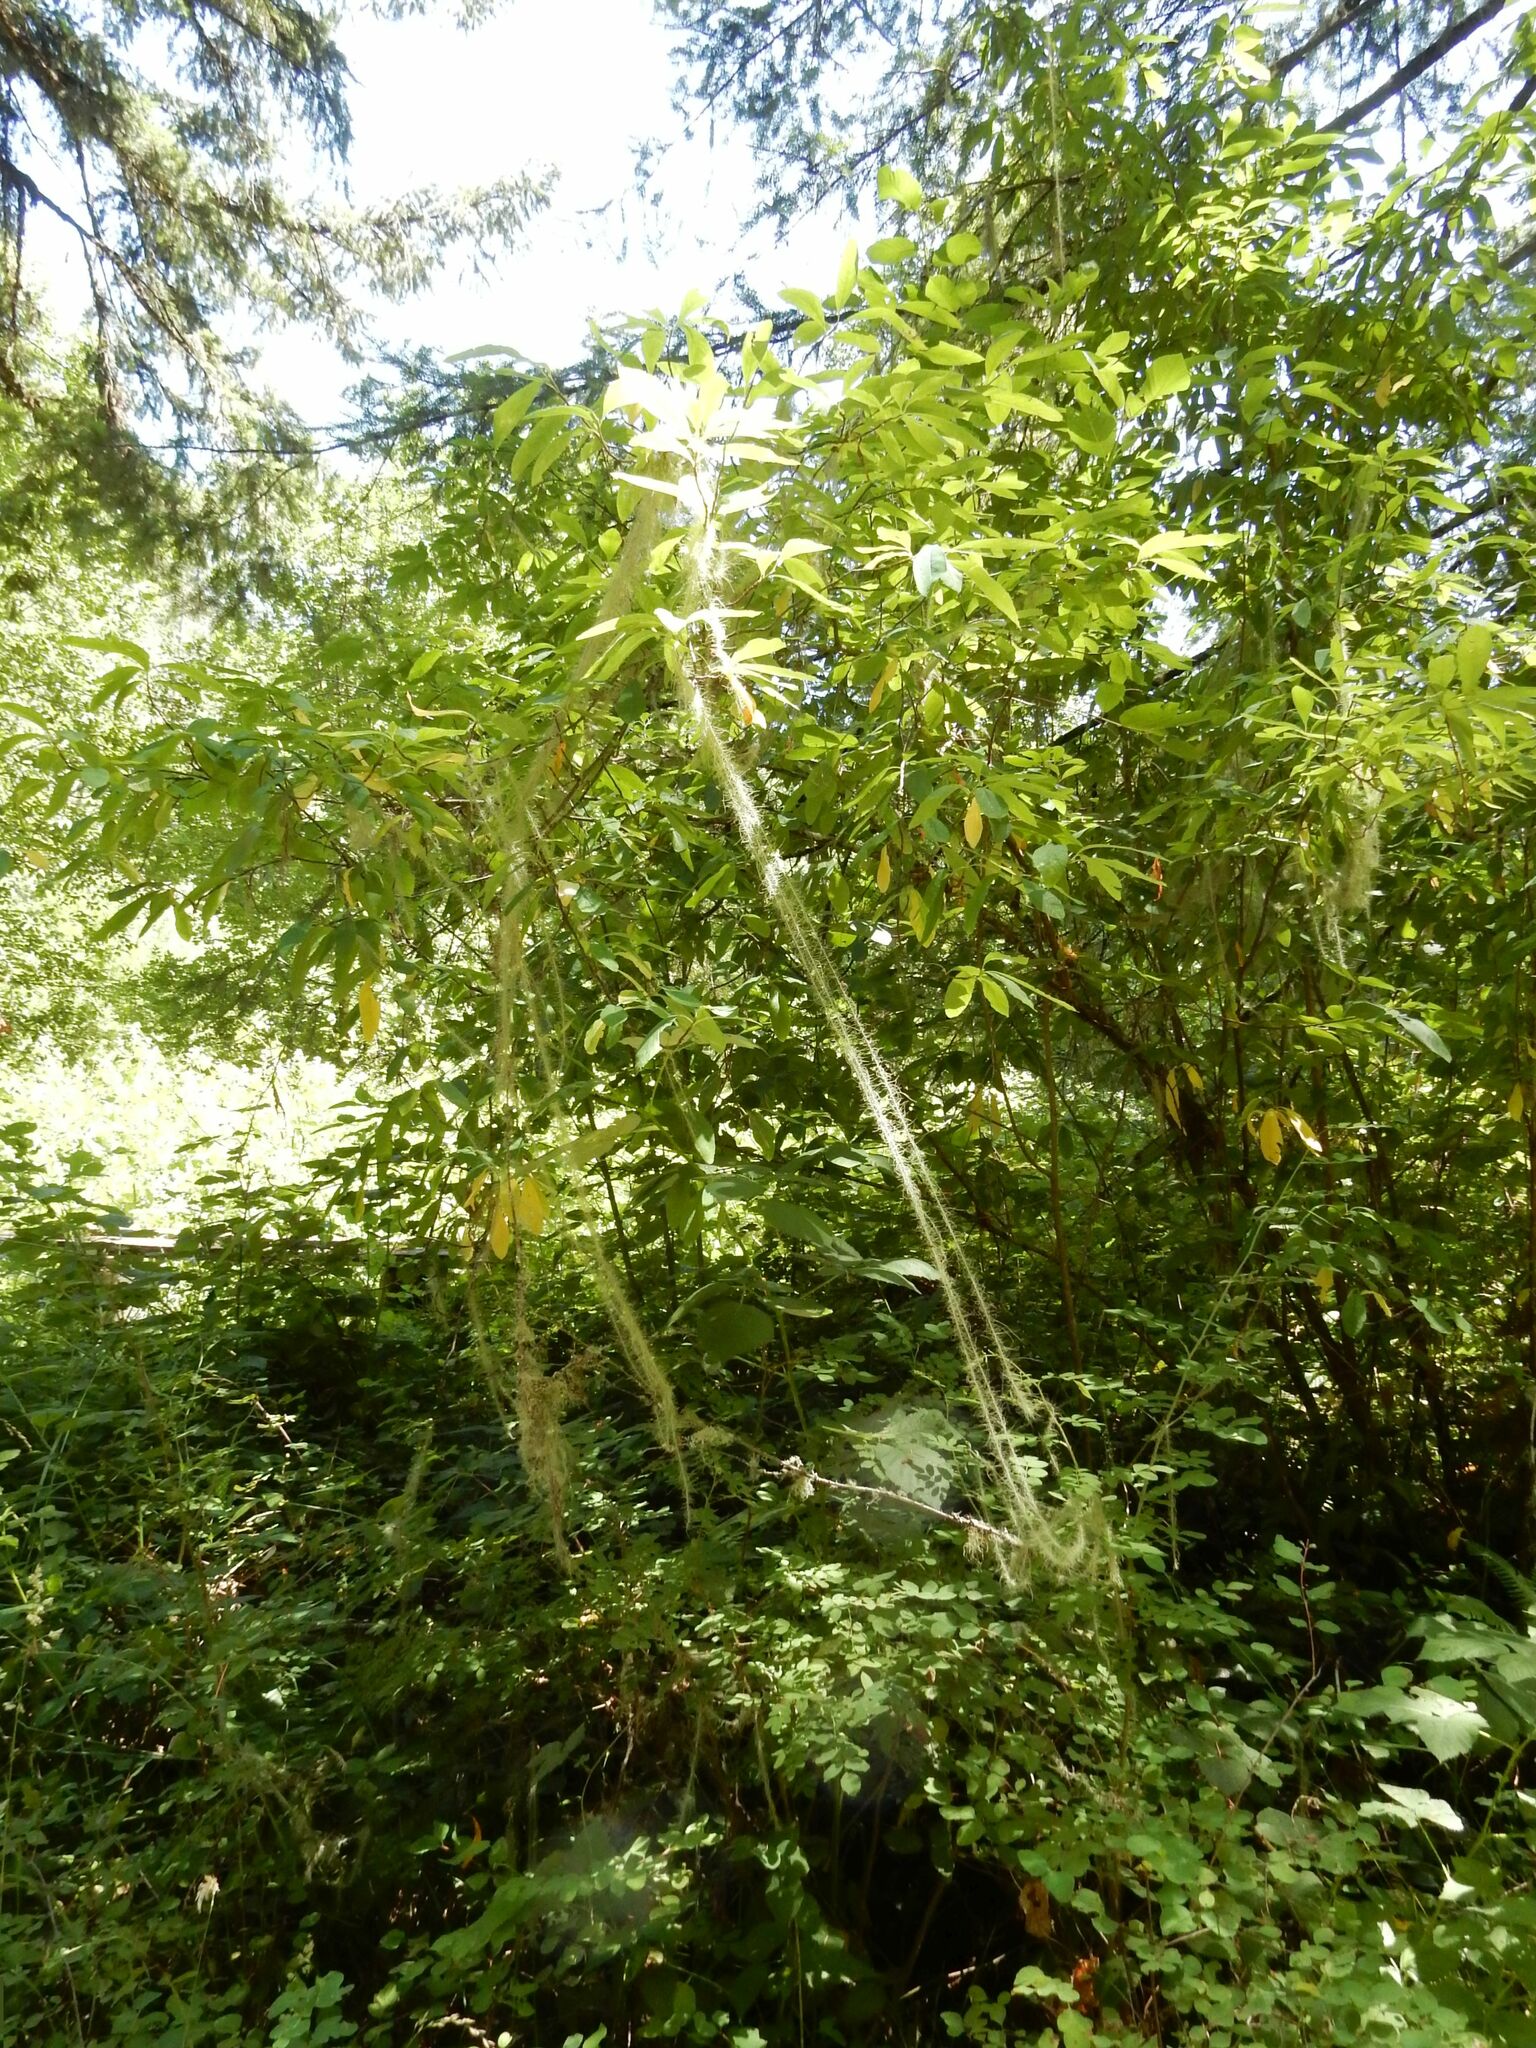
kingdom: Fungi
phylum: Ascomycota
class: Lecanoromycetes
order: Lecanorales
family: Parmeliaceae
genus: Dolichousnea
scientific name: Dolichousnea longissima
